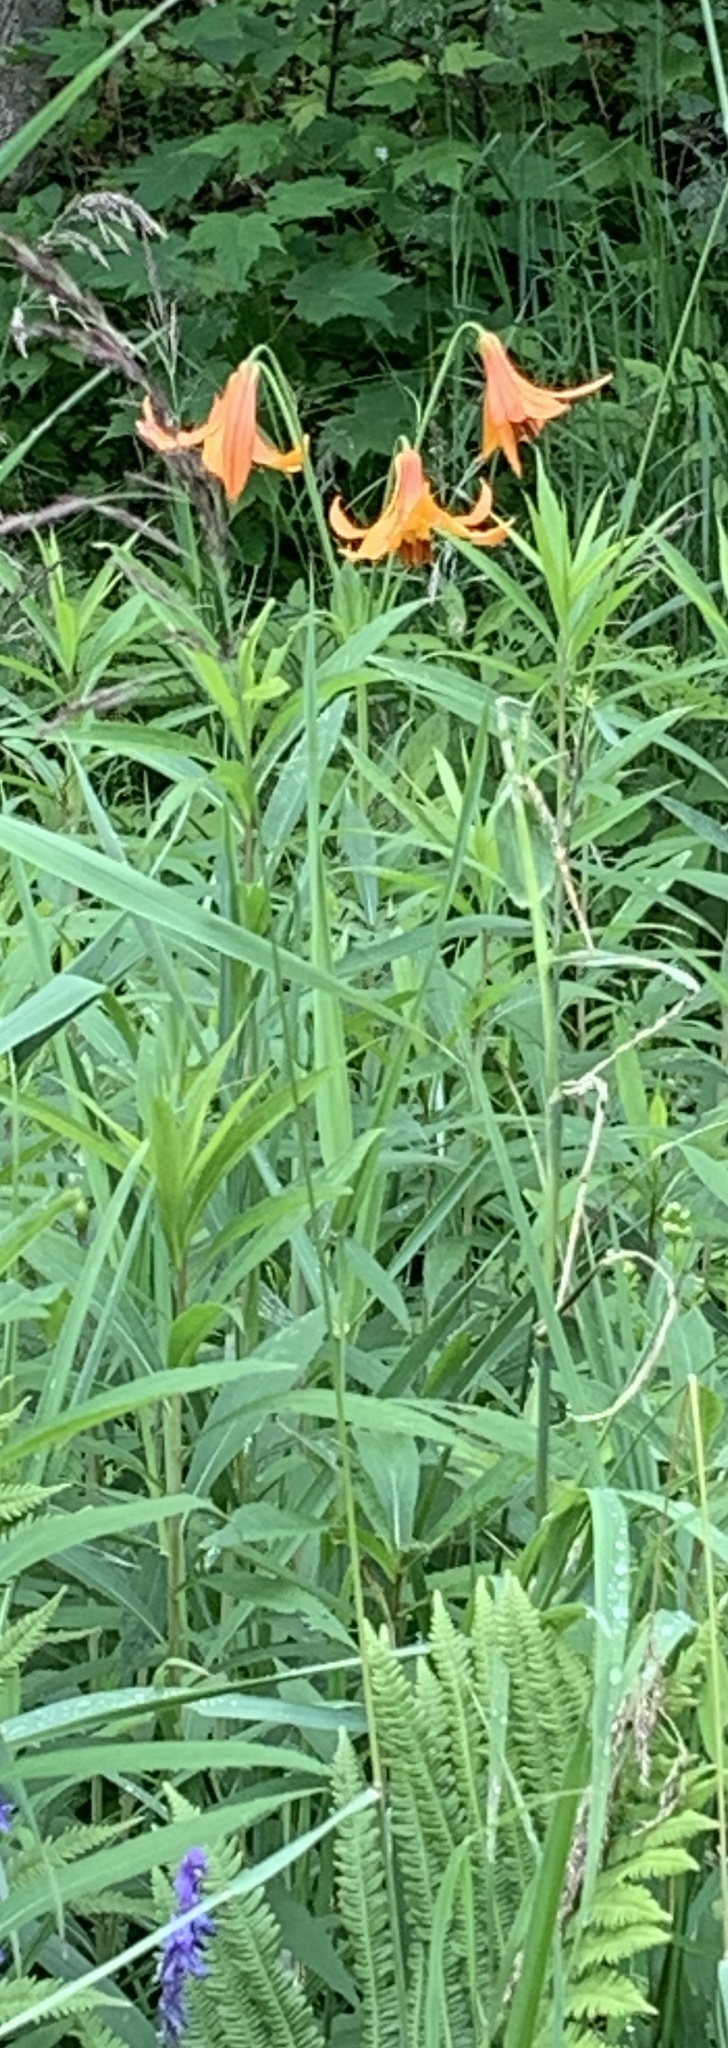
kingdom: Plantae
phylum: Tracheophyta
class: Liliopsida
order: Liliales
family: Liliaceae
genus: Lilium
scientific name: Lilium canadense
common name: Canada lily
